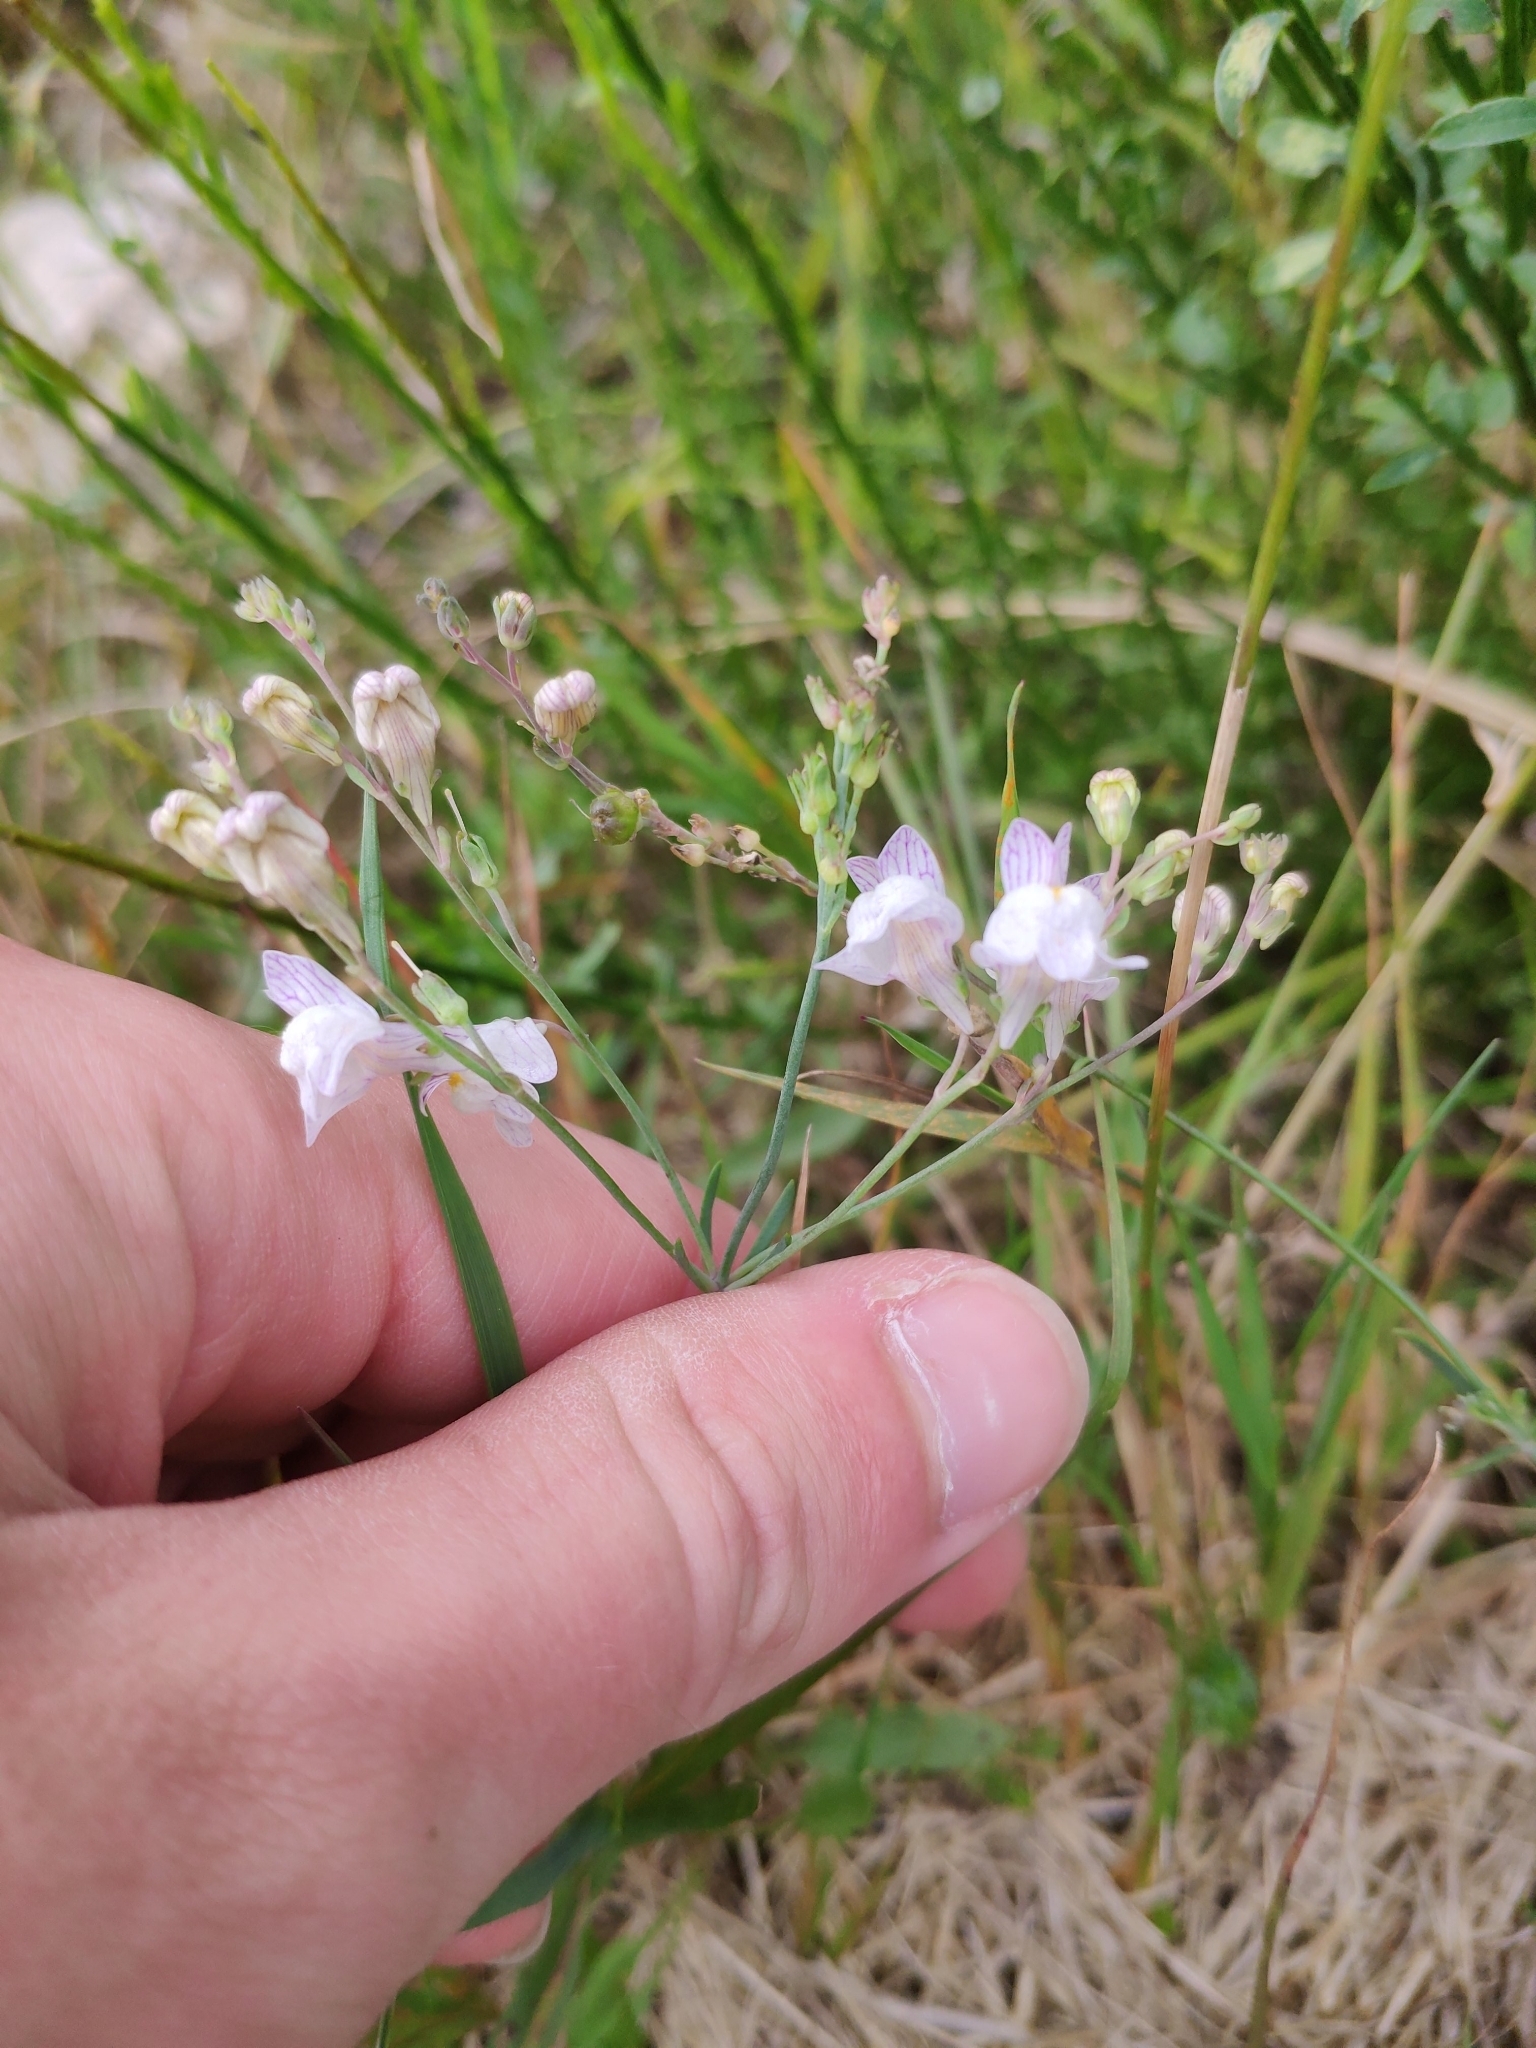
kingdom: Plantae
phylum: Tracheophyta
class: Magnoliopsida
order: Lamiales
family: Plantaginaceae
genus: Linaria
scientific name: Linaria repens
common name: Pale toadflax
